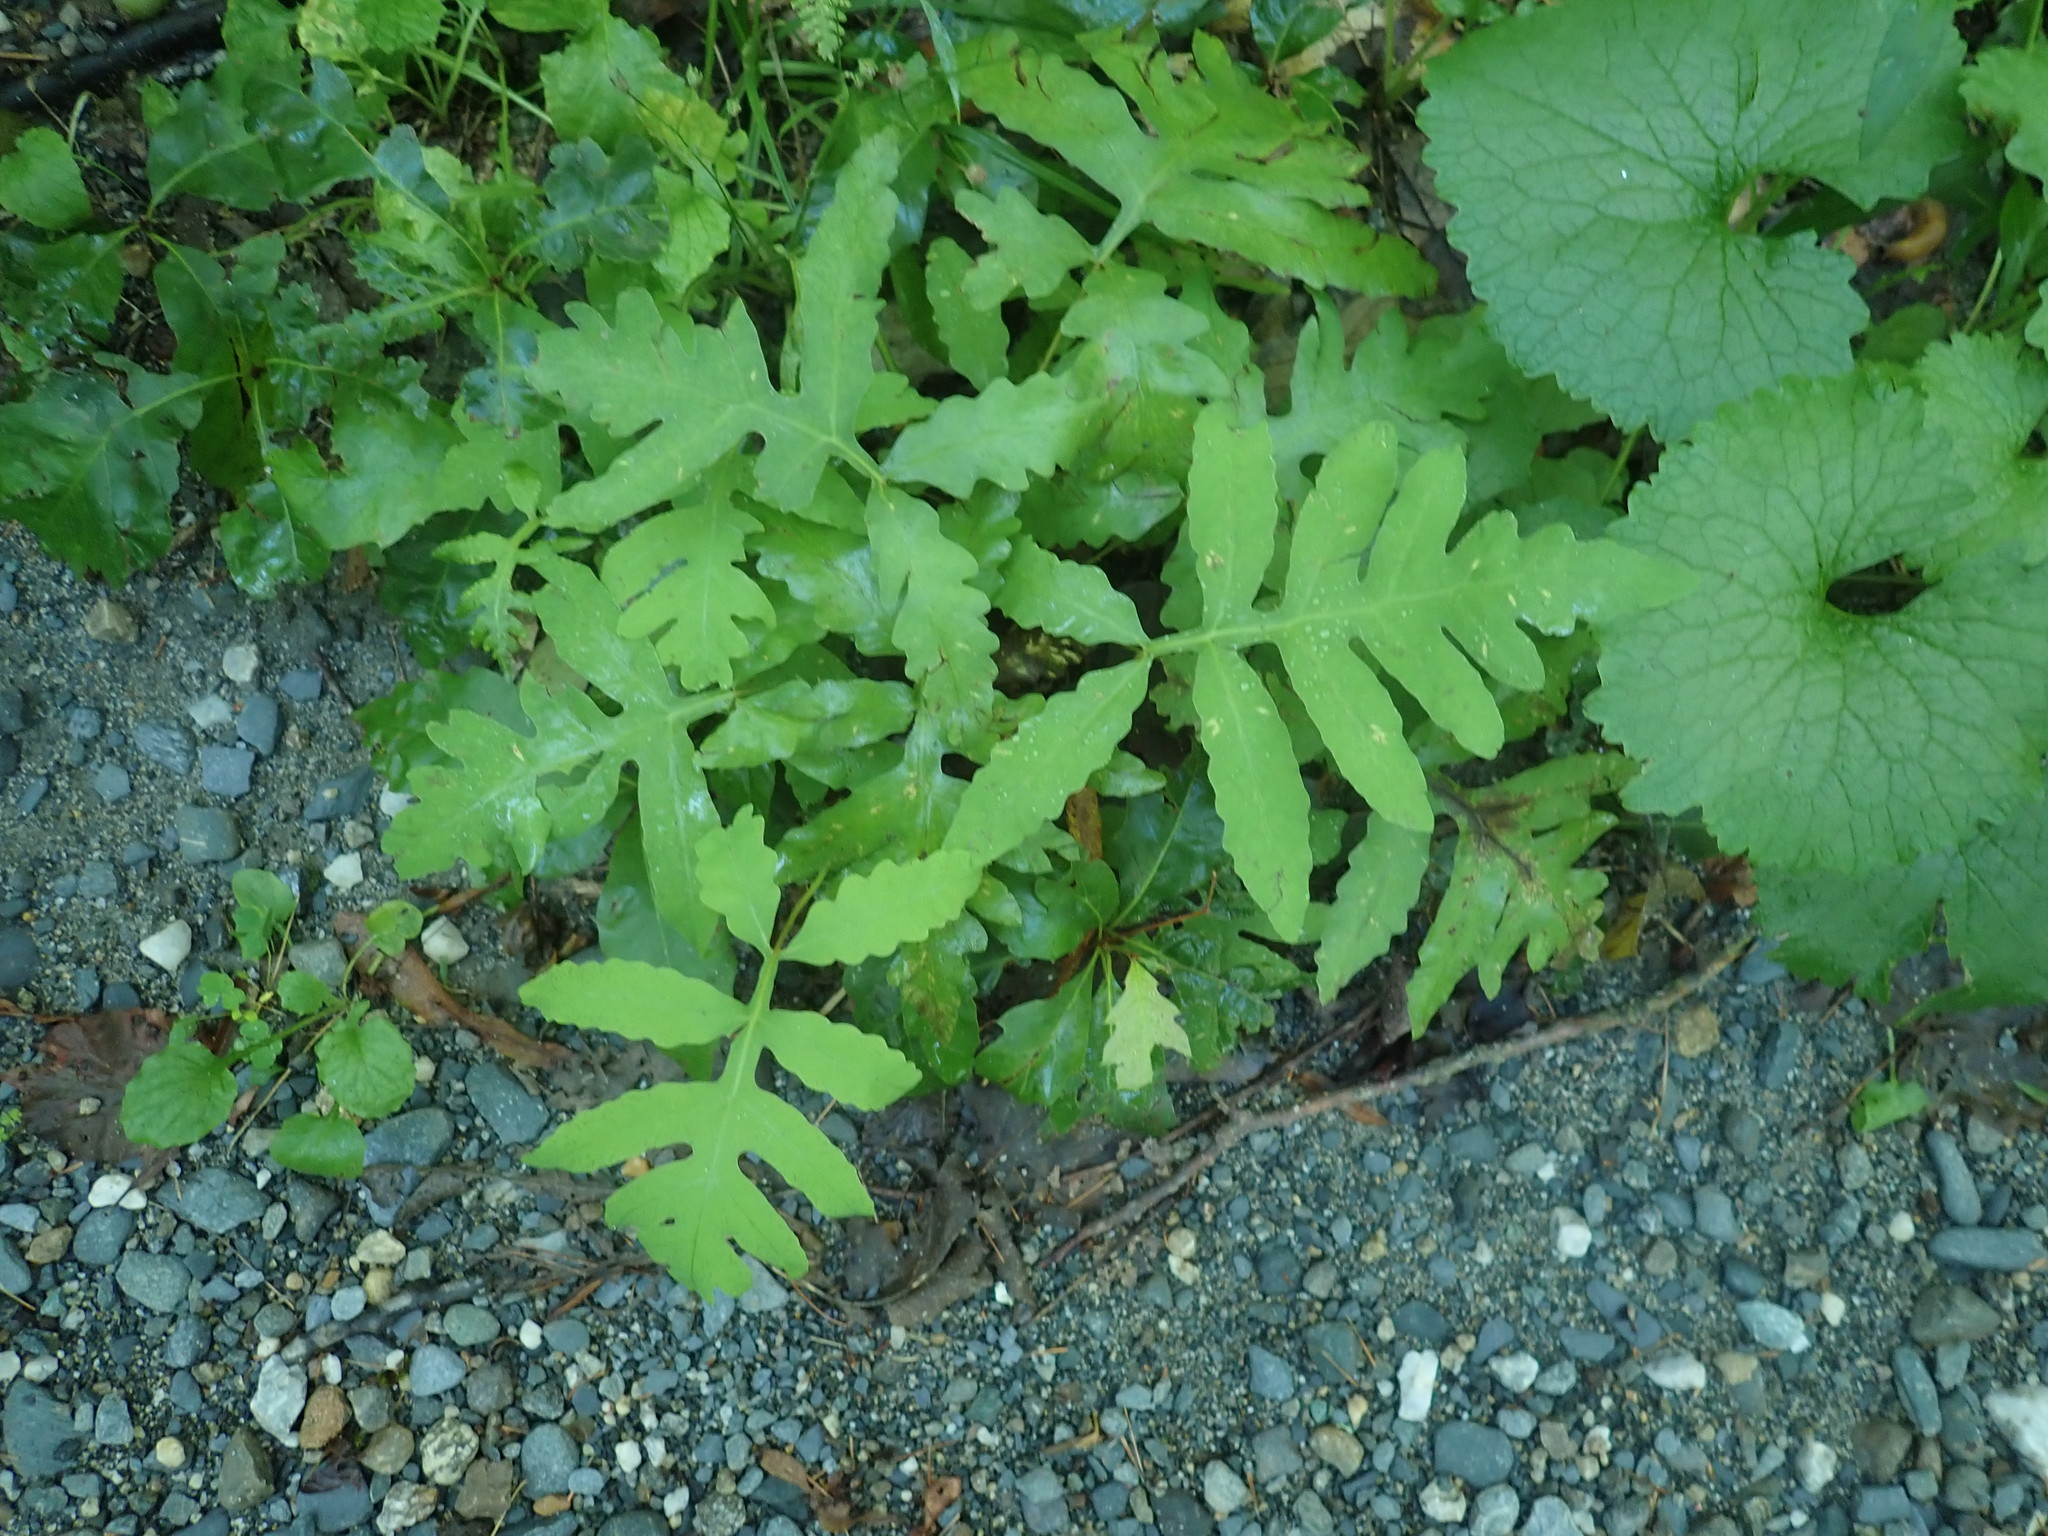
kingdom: Plantae
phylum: Tracheophyta
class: Polypodiopsida
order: Polypodiales
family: Onocleaceae
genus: Onoclea
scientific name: Onoclea sensibilis
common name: Sensitive fern
